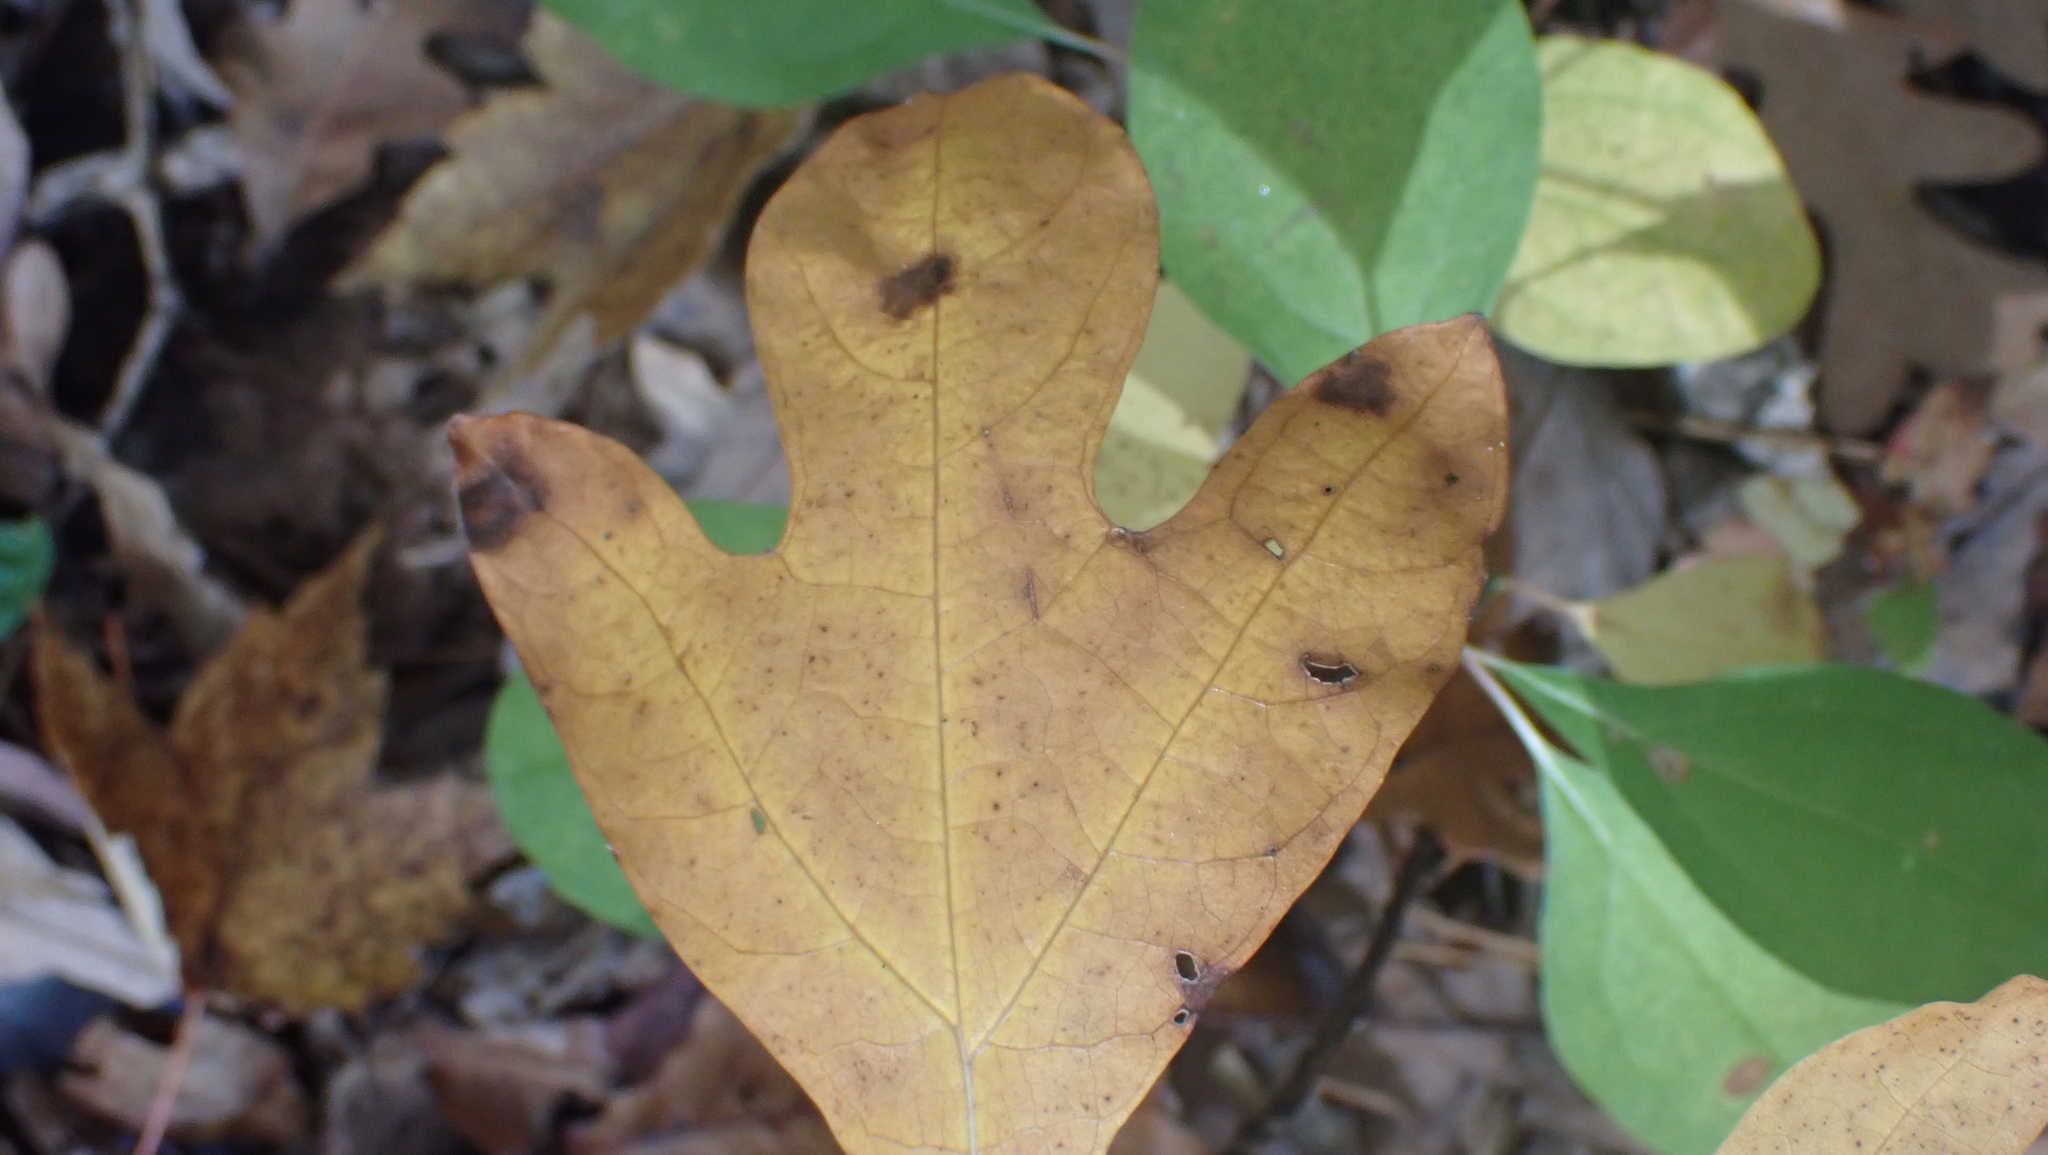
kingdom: Plantae
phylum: Tracheophyta
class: Magnoliopsida
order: Laurales
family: Lauraceae
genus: Sassafras
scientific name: Sassafras albidum
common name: Sassafras
